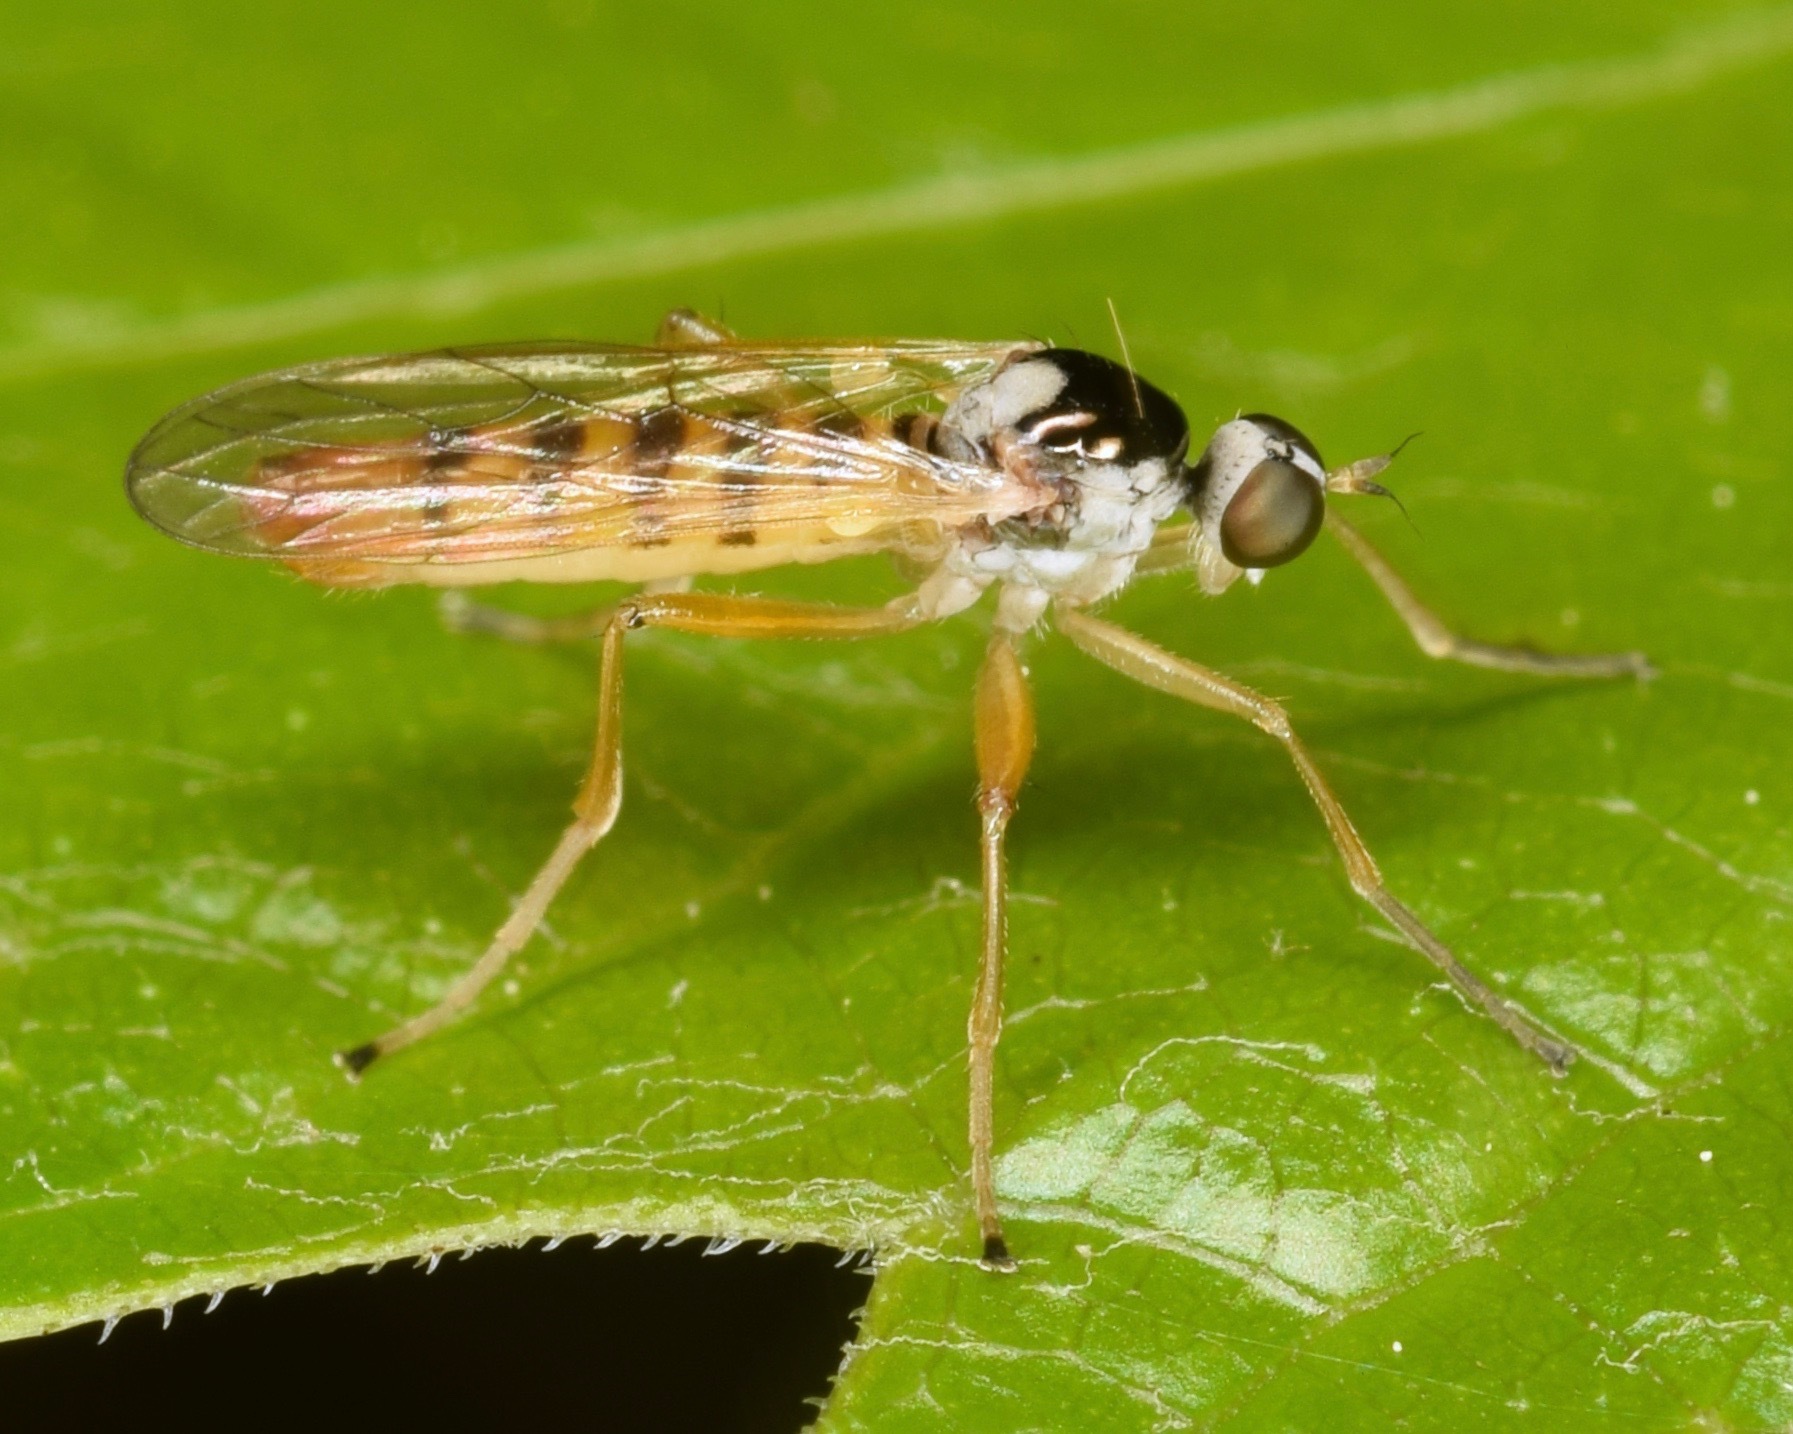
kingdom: Animalia
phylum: Arthropoda
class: Insecta
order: Diptera
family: Brachystomatidae
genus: Brachystoma
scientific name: Brachystoma robertsonii
